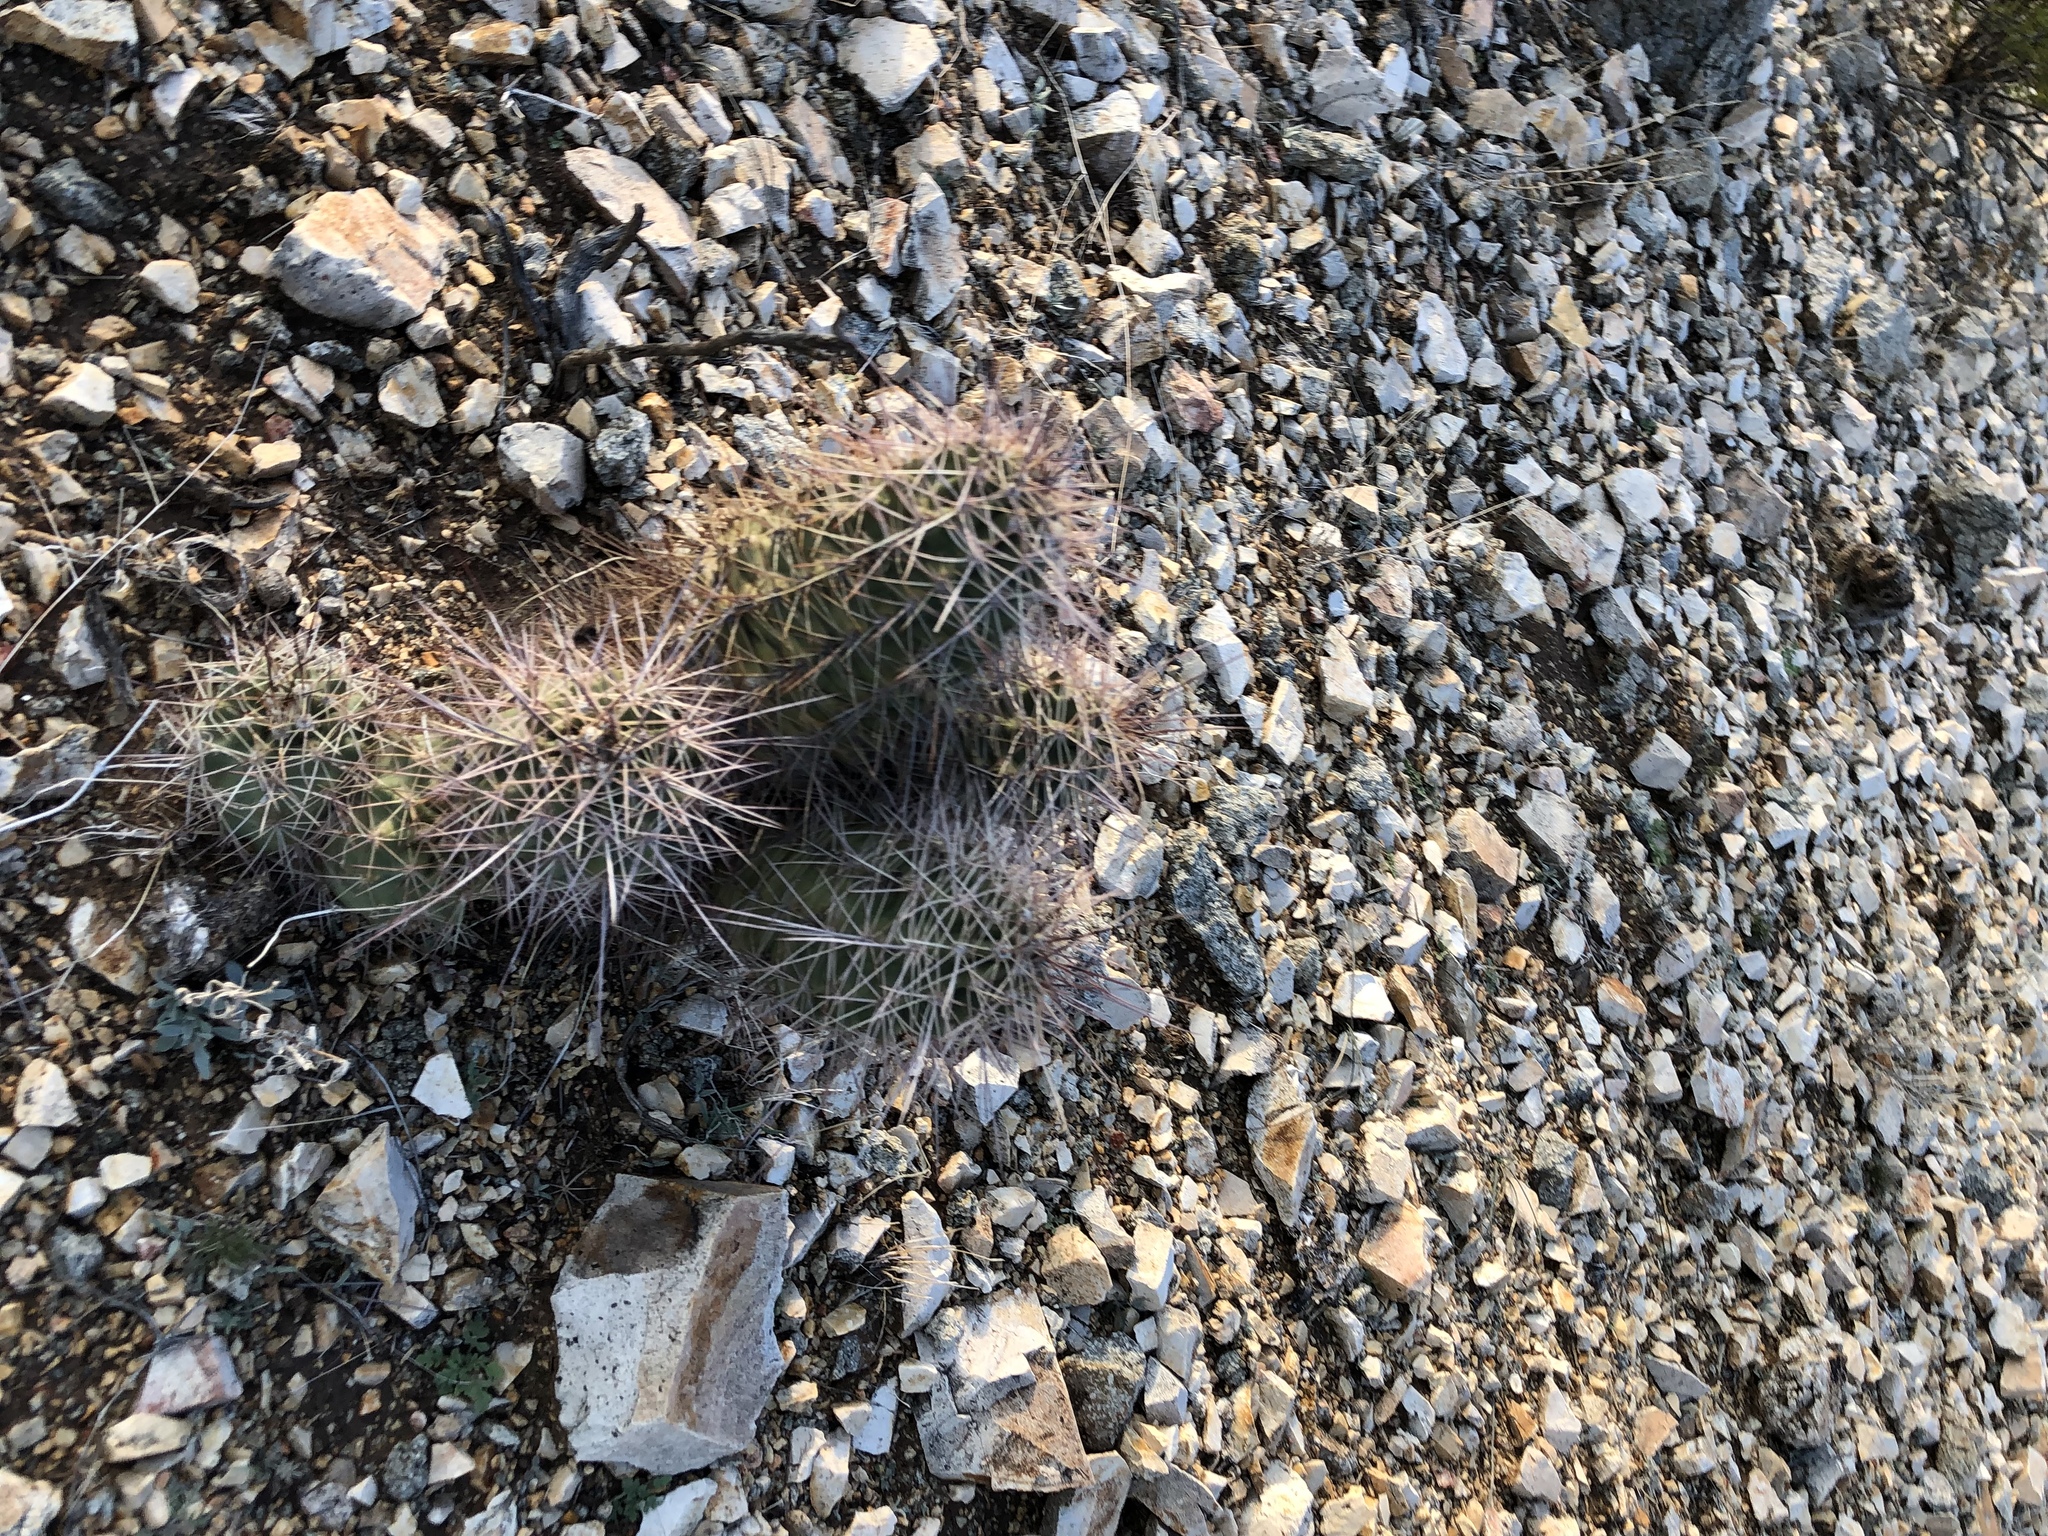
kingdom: Plantae
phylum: Tracheophyta
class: Magnoliopsida
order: Caryophyllales
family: Cactaceae
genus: Echinocereus
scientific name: Echinocereus coccineus
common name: Scarlet hedgehog cactus
